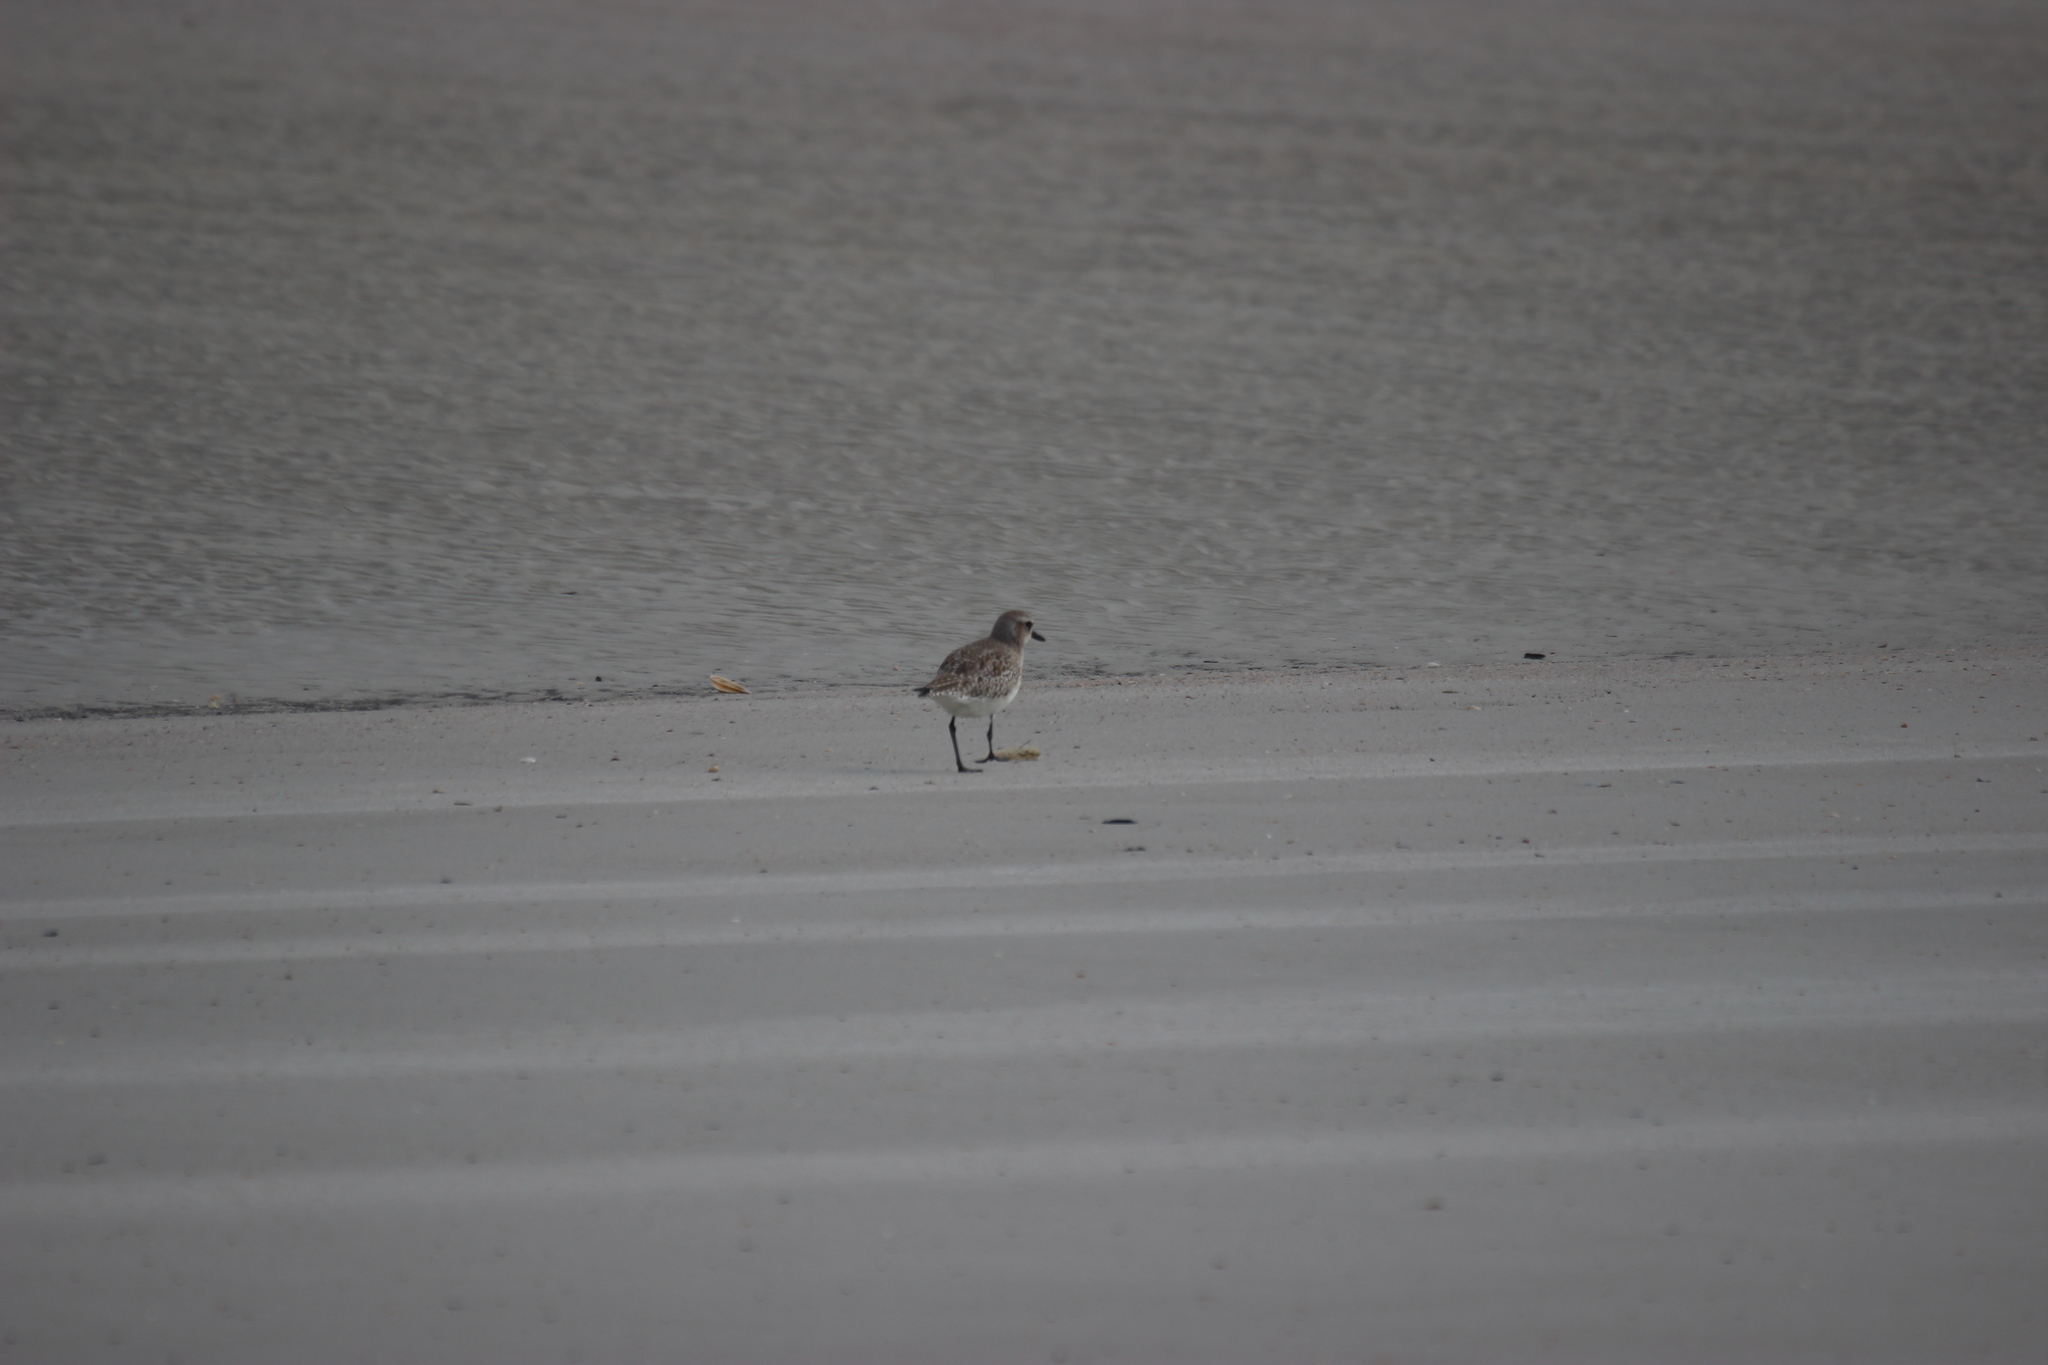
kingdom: Animalia
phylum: Chordata
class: Aves
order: Charadriiformes
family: Charadriidae
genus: Pluvialis
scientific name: Pluvialis squatarola
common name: Grey plover
